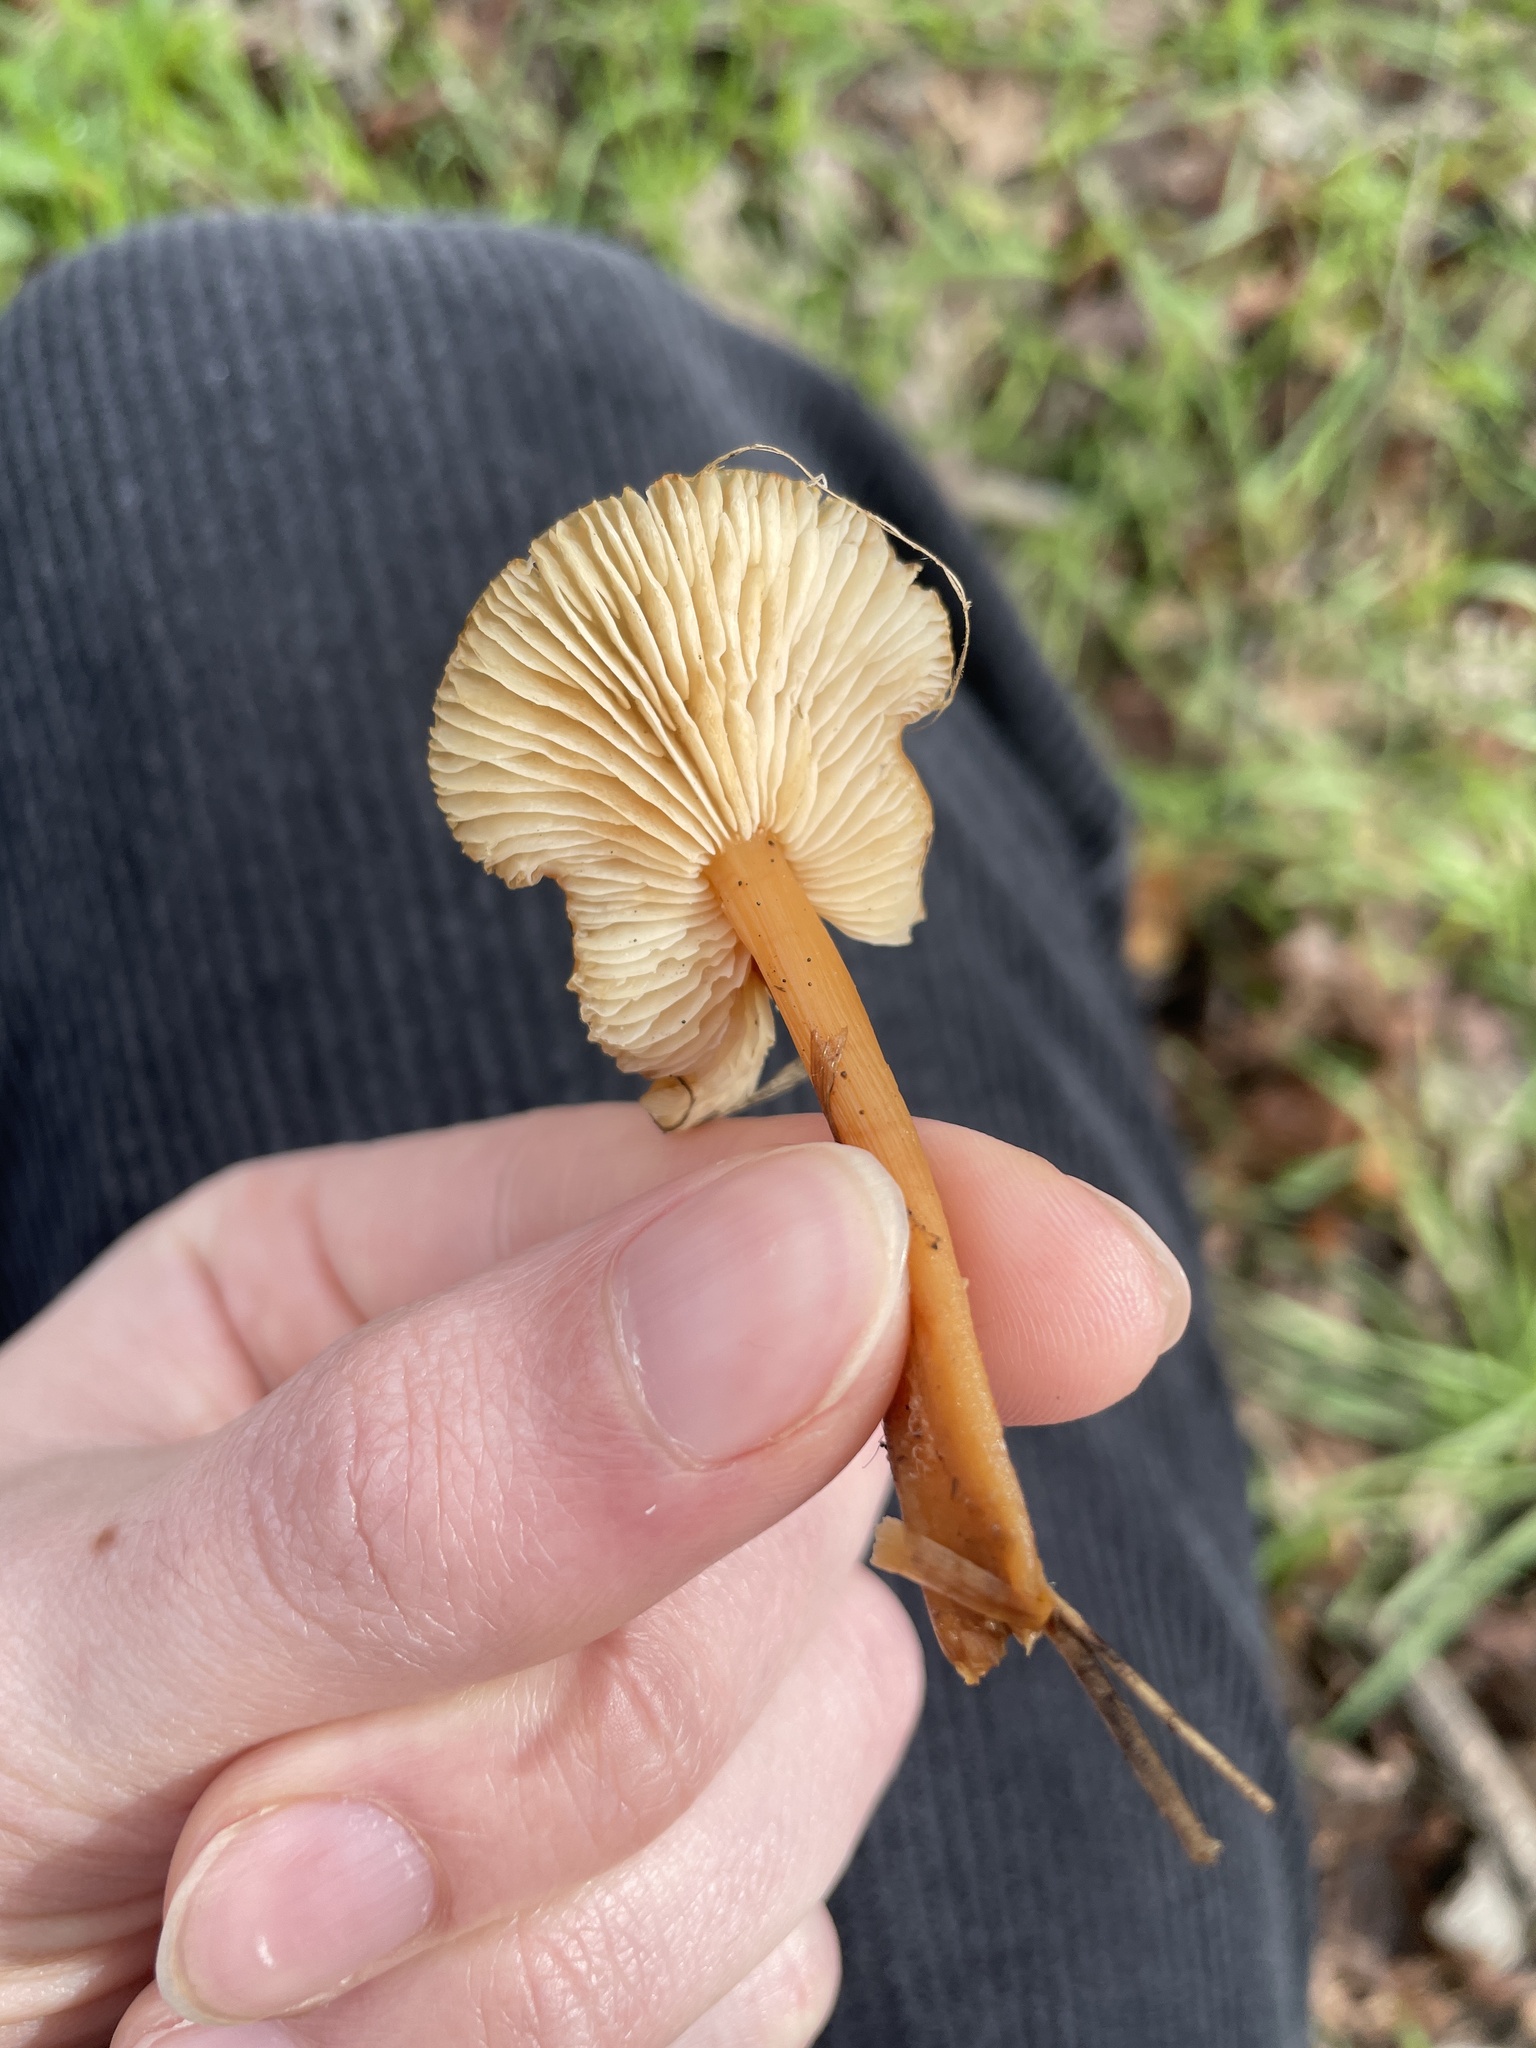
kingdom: Fungi
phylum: Basidiomycota
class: Agaricomycetes
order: Agaricales
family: Omphalotaceae
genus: Gymnopus
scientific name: Gymnopus dryophilus
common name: Penny top
